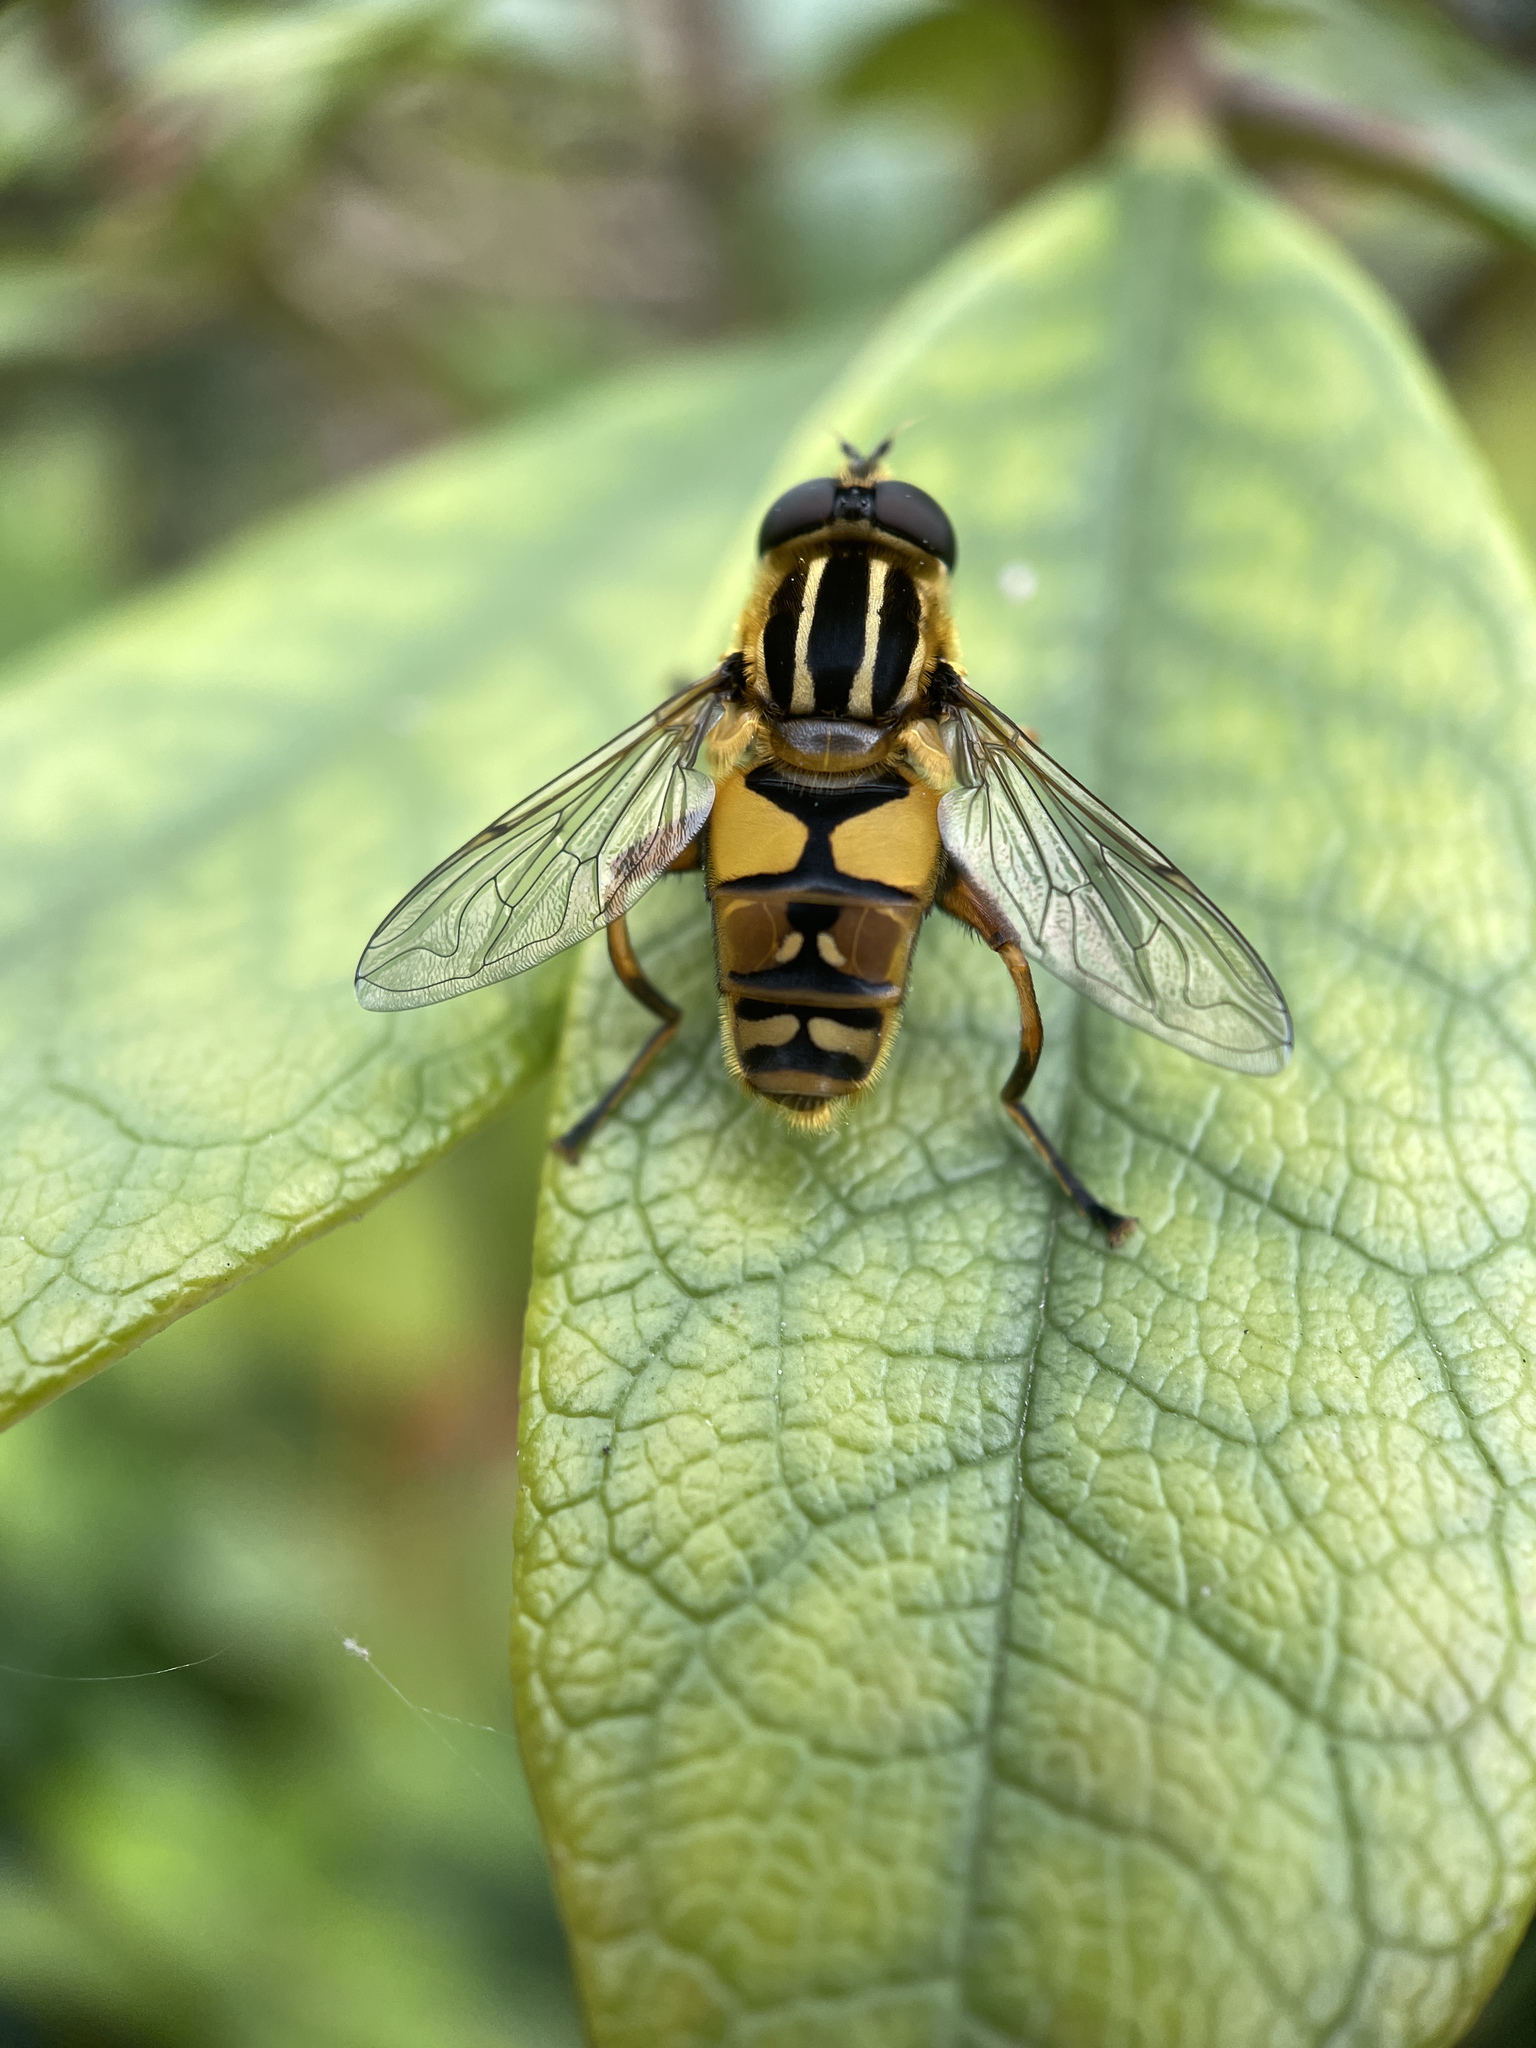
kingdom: Animalia
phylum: Arthropoda
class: Insecta
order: Diptera
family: Syrphidae
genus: Helophilus
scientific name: Helophilus pendulus
